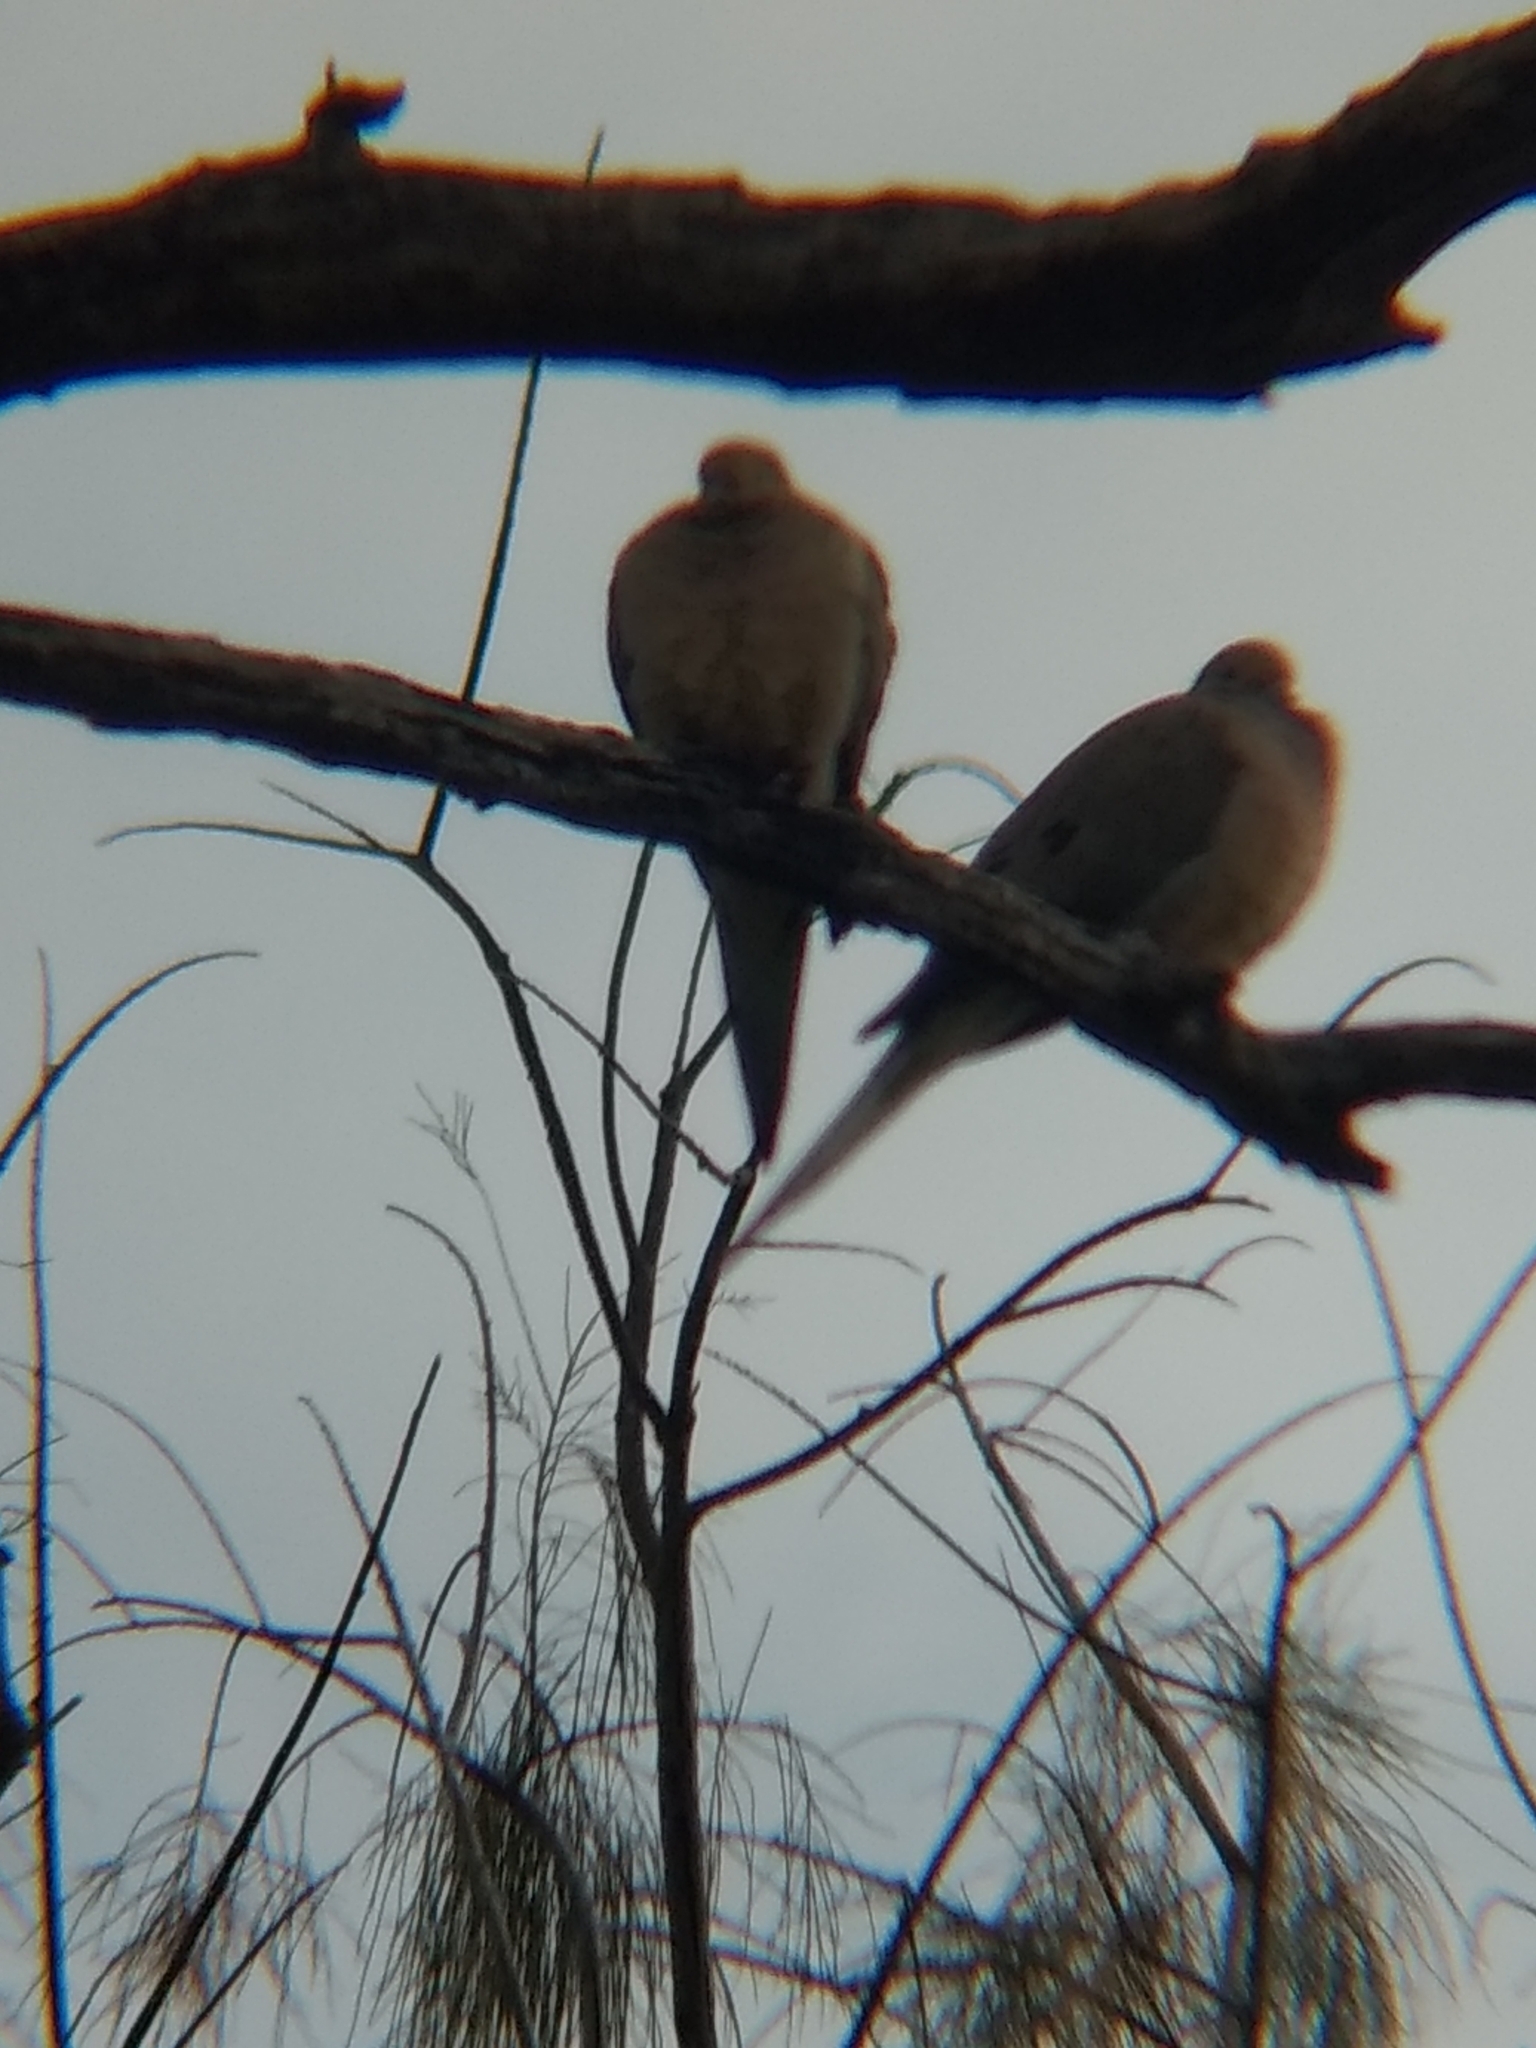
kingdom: Animalia
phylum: Chordata
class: Aves
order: Columbiformes
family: Columbidae
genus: Zenaida
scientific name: Zenaida macroura
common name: Mourning dove
